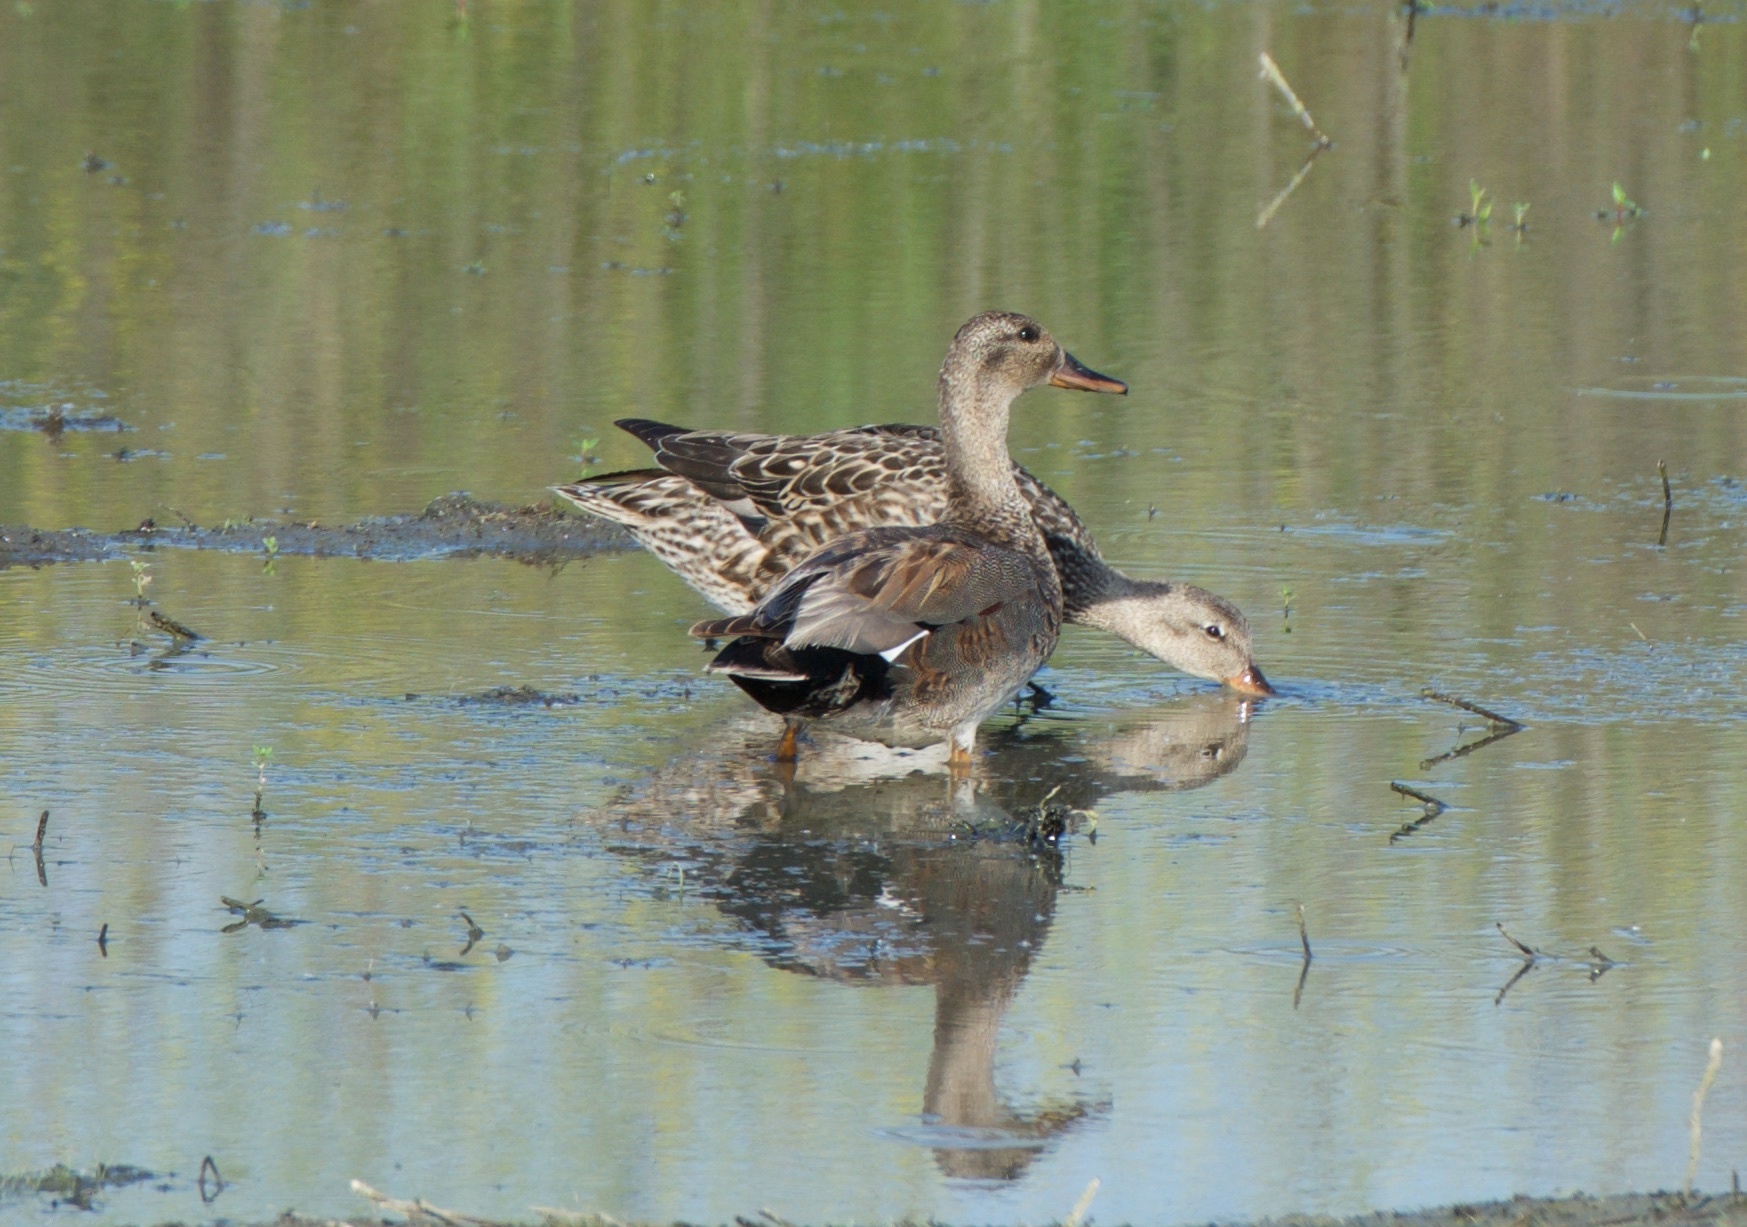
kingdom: Animalia
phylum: Chordata
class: Aves
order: Anseriformes
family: Anatidae
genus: Mareca
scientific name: Mareca strepera
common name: Gadwall
